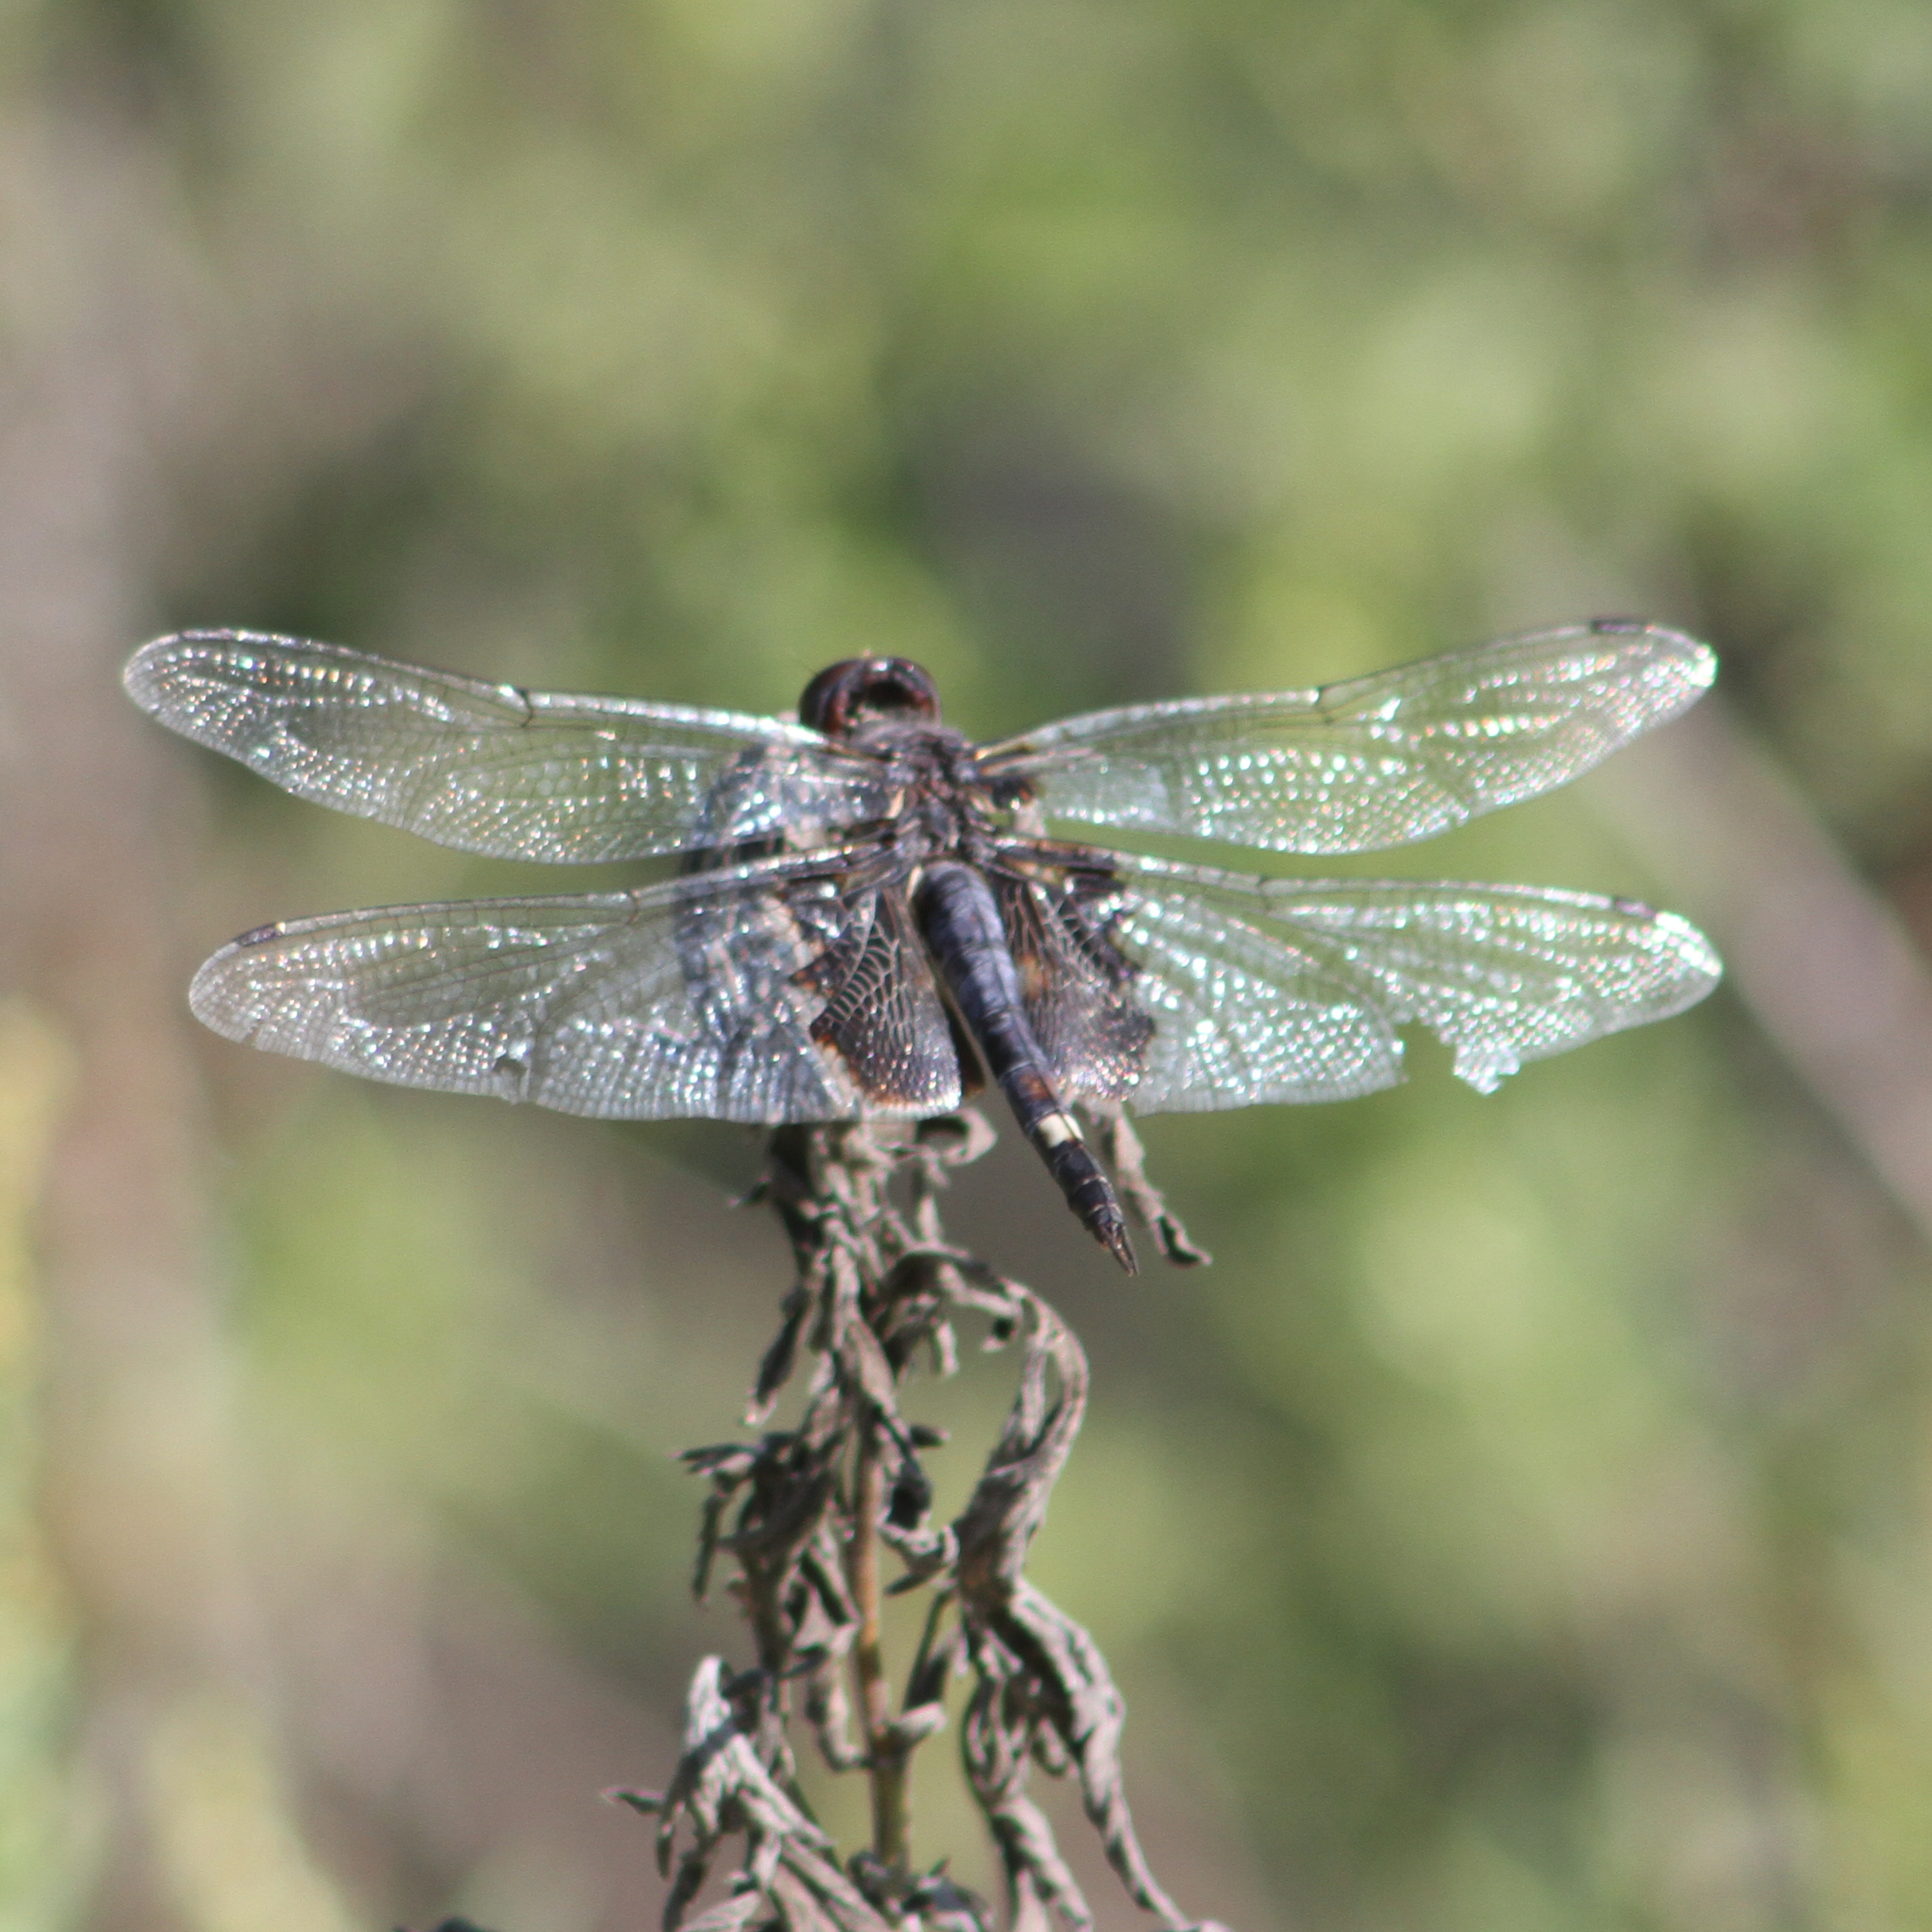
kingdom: Animalia
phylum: Arthropoda
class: Insecta
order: Odonata
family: Libellulidae
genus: Tramea
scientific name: Tramea lacerata
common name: Black saddlebags
